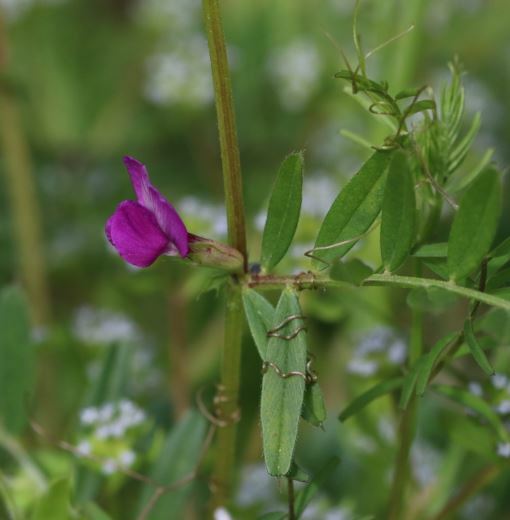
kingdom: Plantae
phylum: Tracheophyta
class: Magnoliopsida
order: Fabales
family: Fabaceae
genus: Vicia
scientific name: Vicia sativa
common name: Garden vetch
